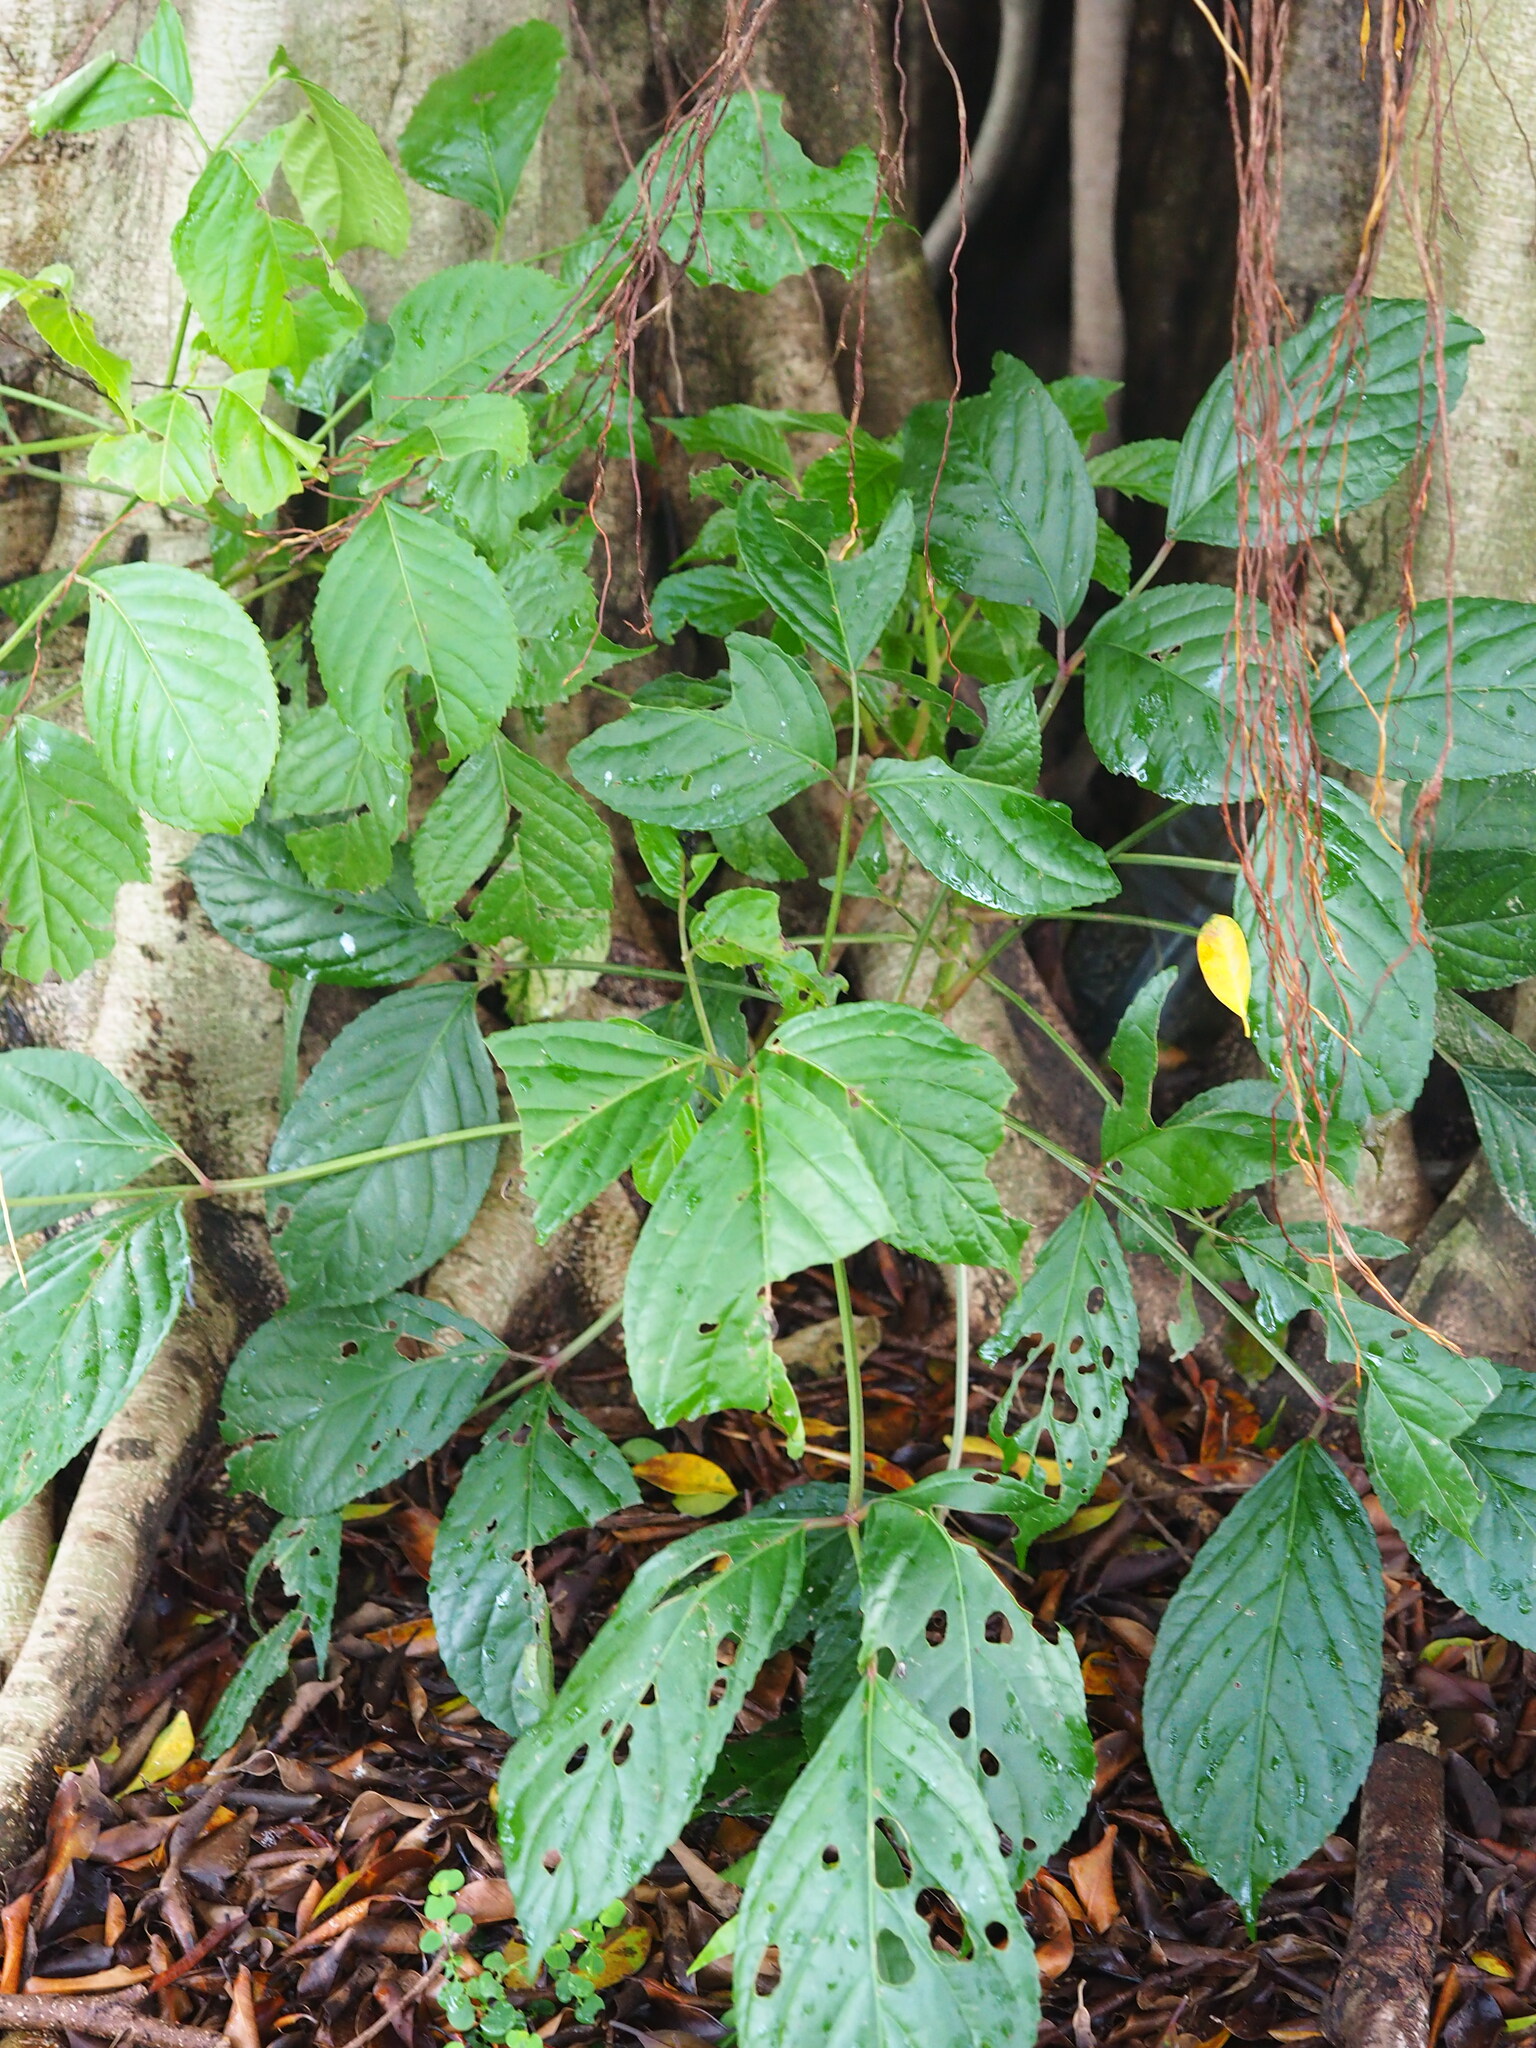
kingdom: Plantae
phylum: Tracheophyta
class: Magnoliopsida
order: Malpighiales
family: Phyllanthaceae
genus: Bischofia
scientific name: Bischofia javanica
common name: Javanese bishopwood
